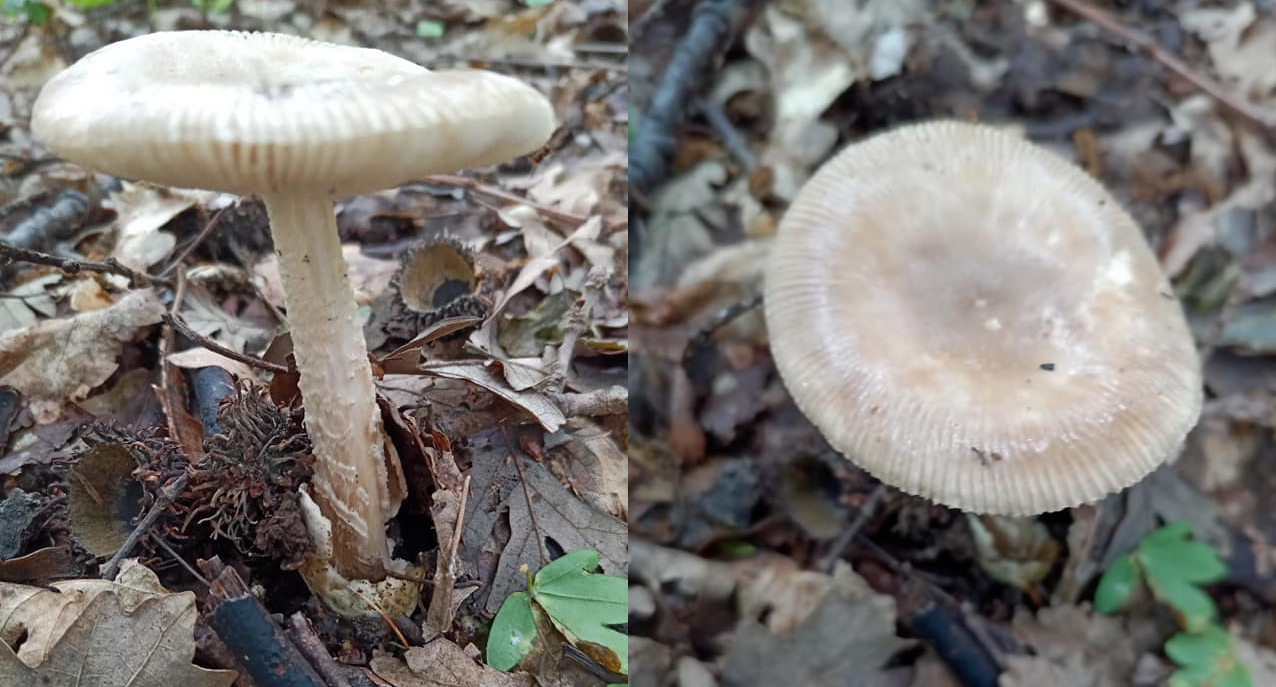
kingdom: Fungi
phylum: Basidiomycota
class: Agaricomycetes
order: Agaricales
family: Amanitaceae
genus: Amanita
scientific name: Amanita vaginata
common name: Grisette
